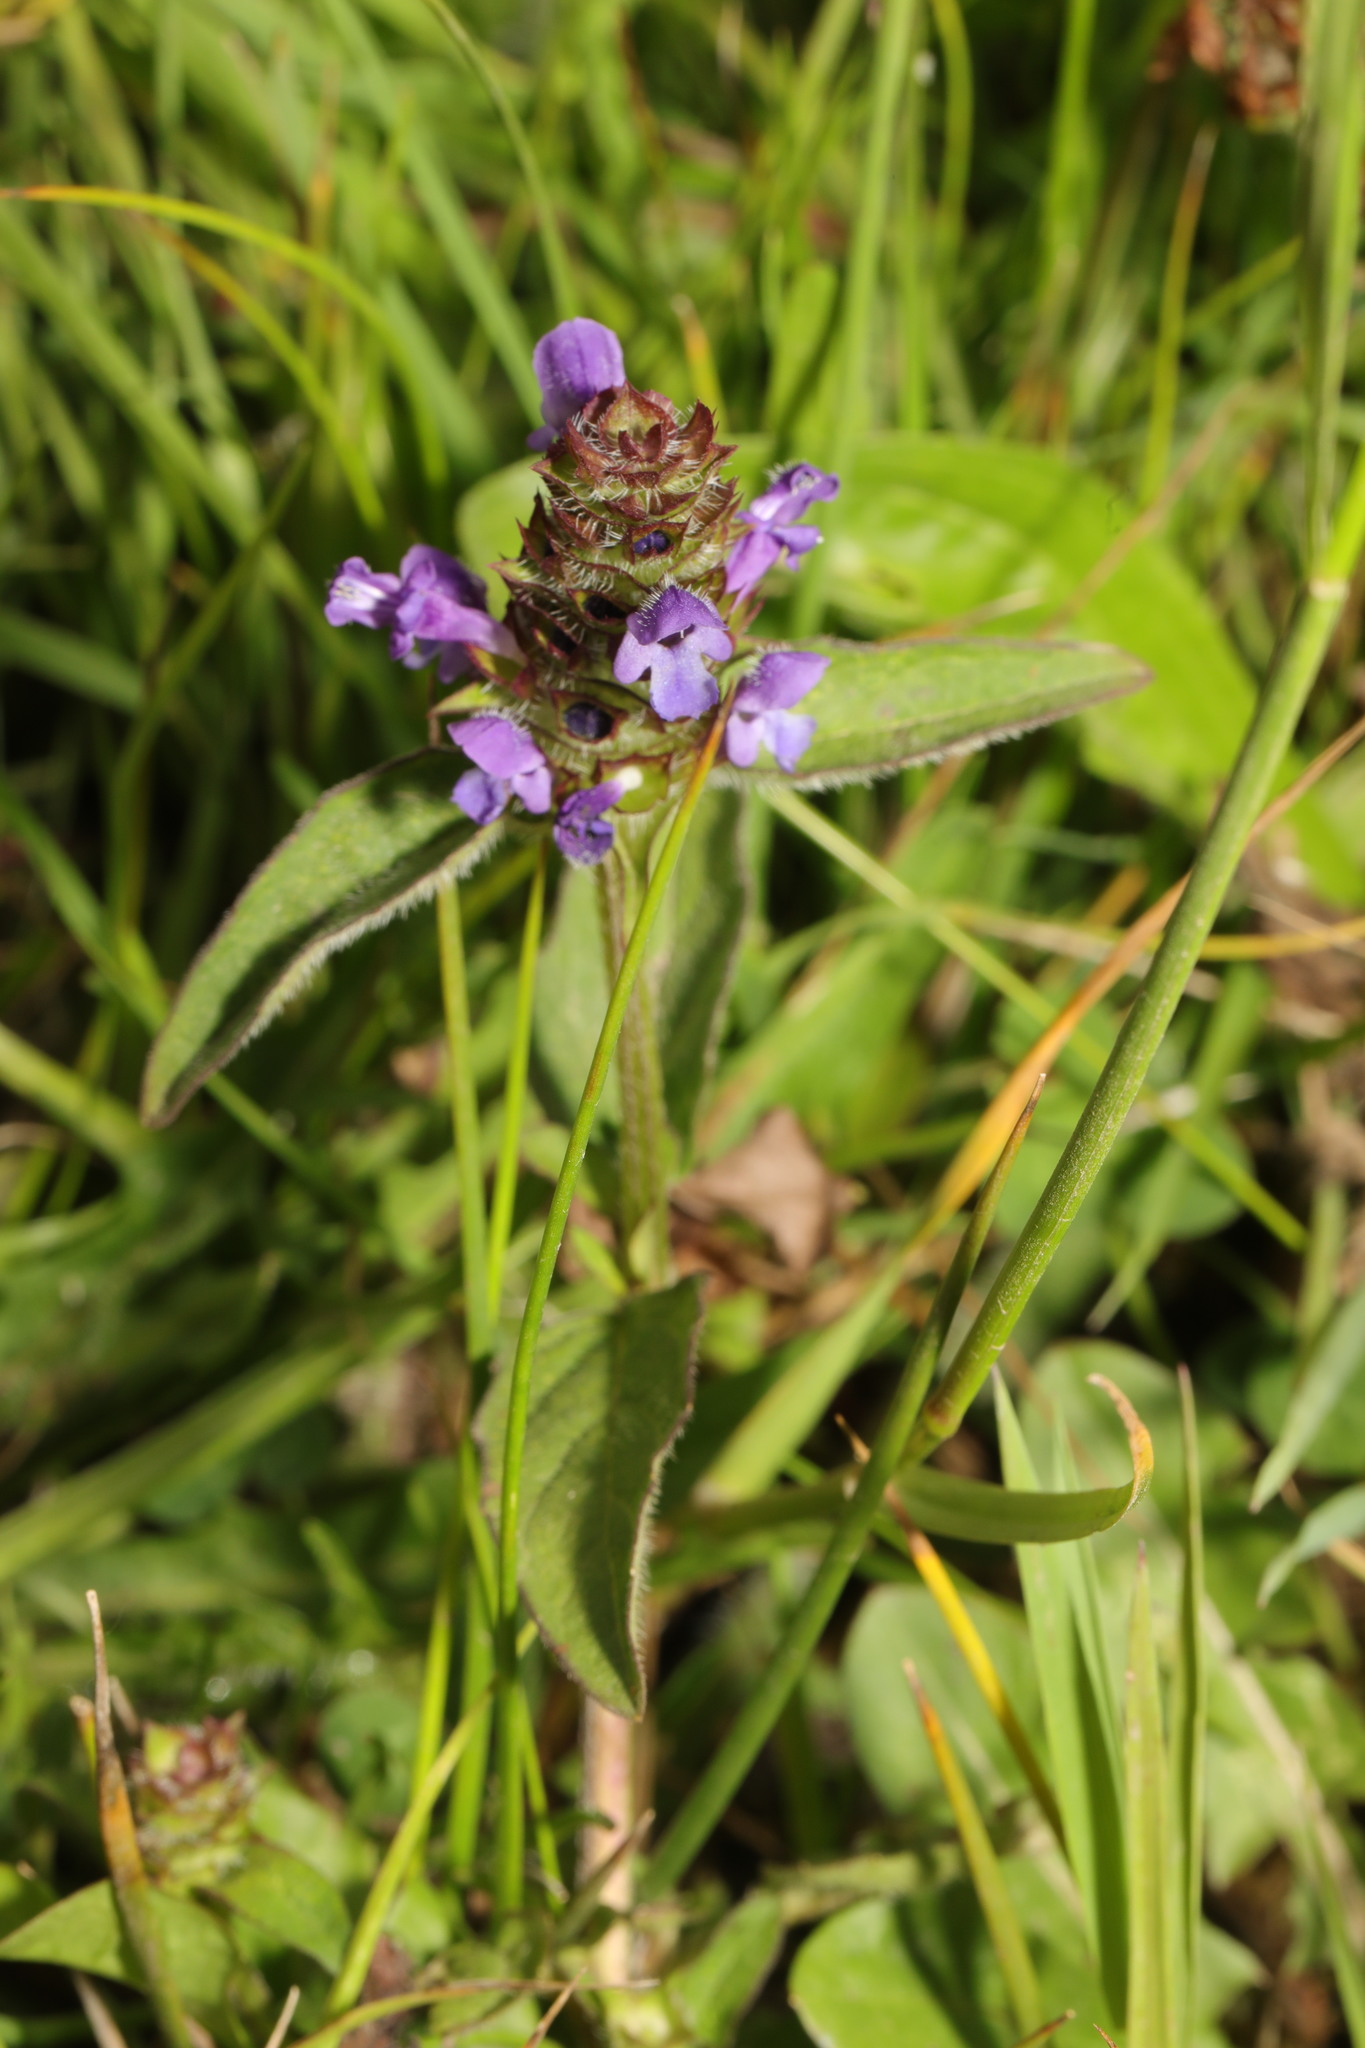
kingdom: Plantae
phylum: Tracheophyta
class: Magnoliopsida
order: Lamiales
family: Lamiaceae
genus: Prunella
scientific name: Prunella vulgaris
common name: Heal-all
